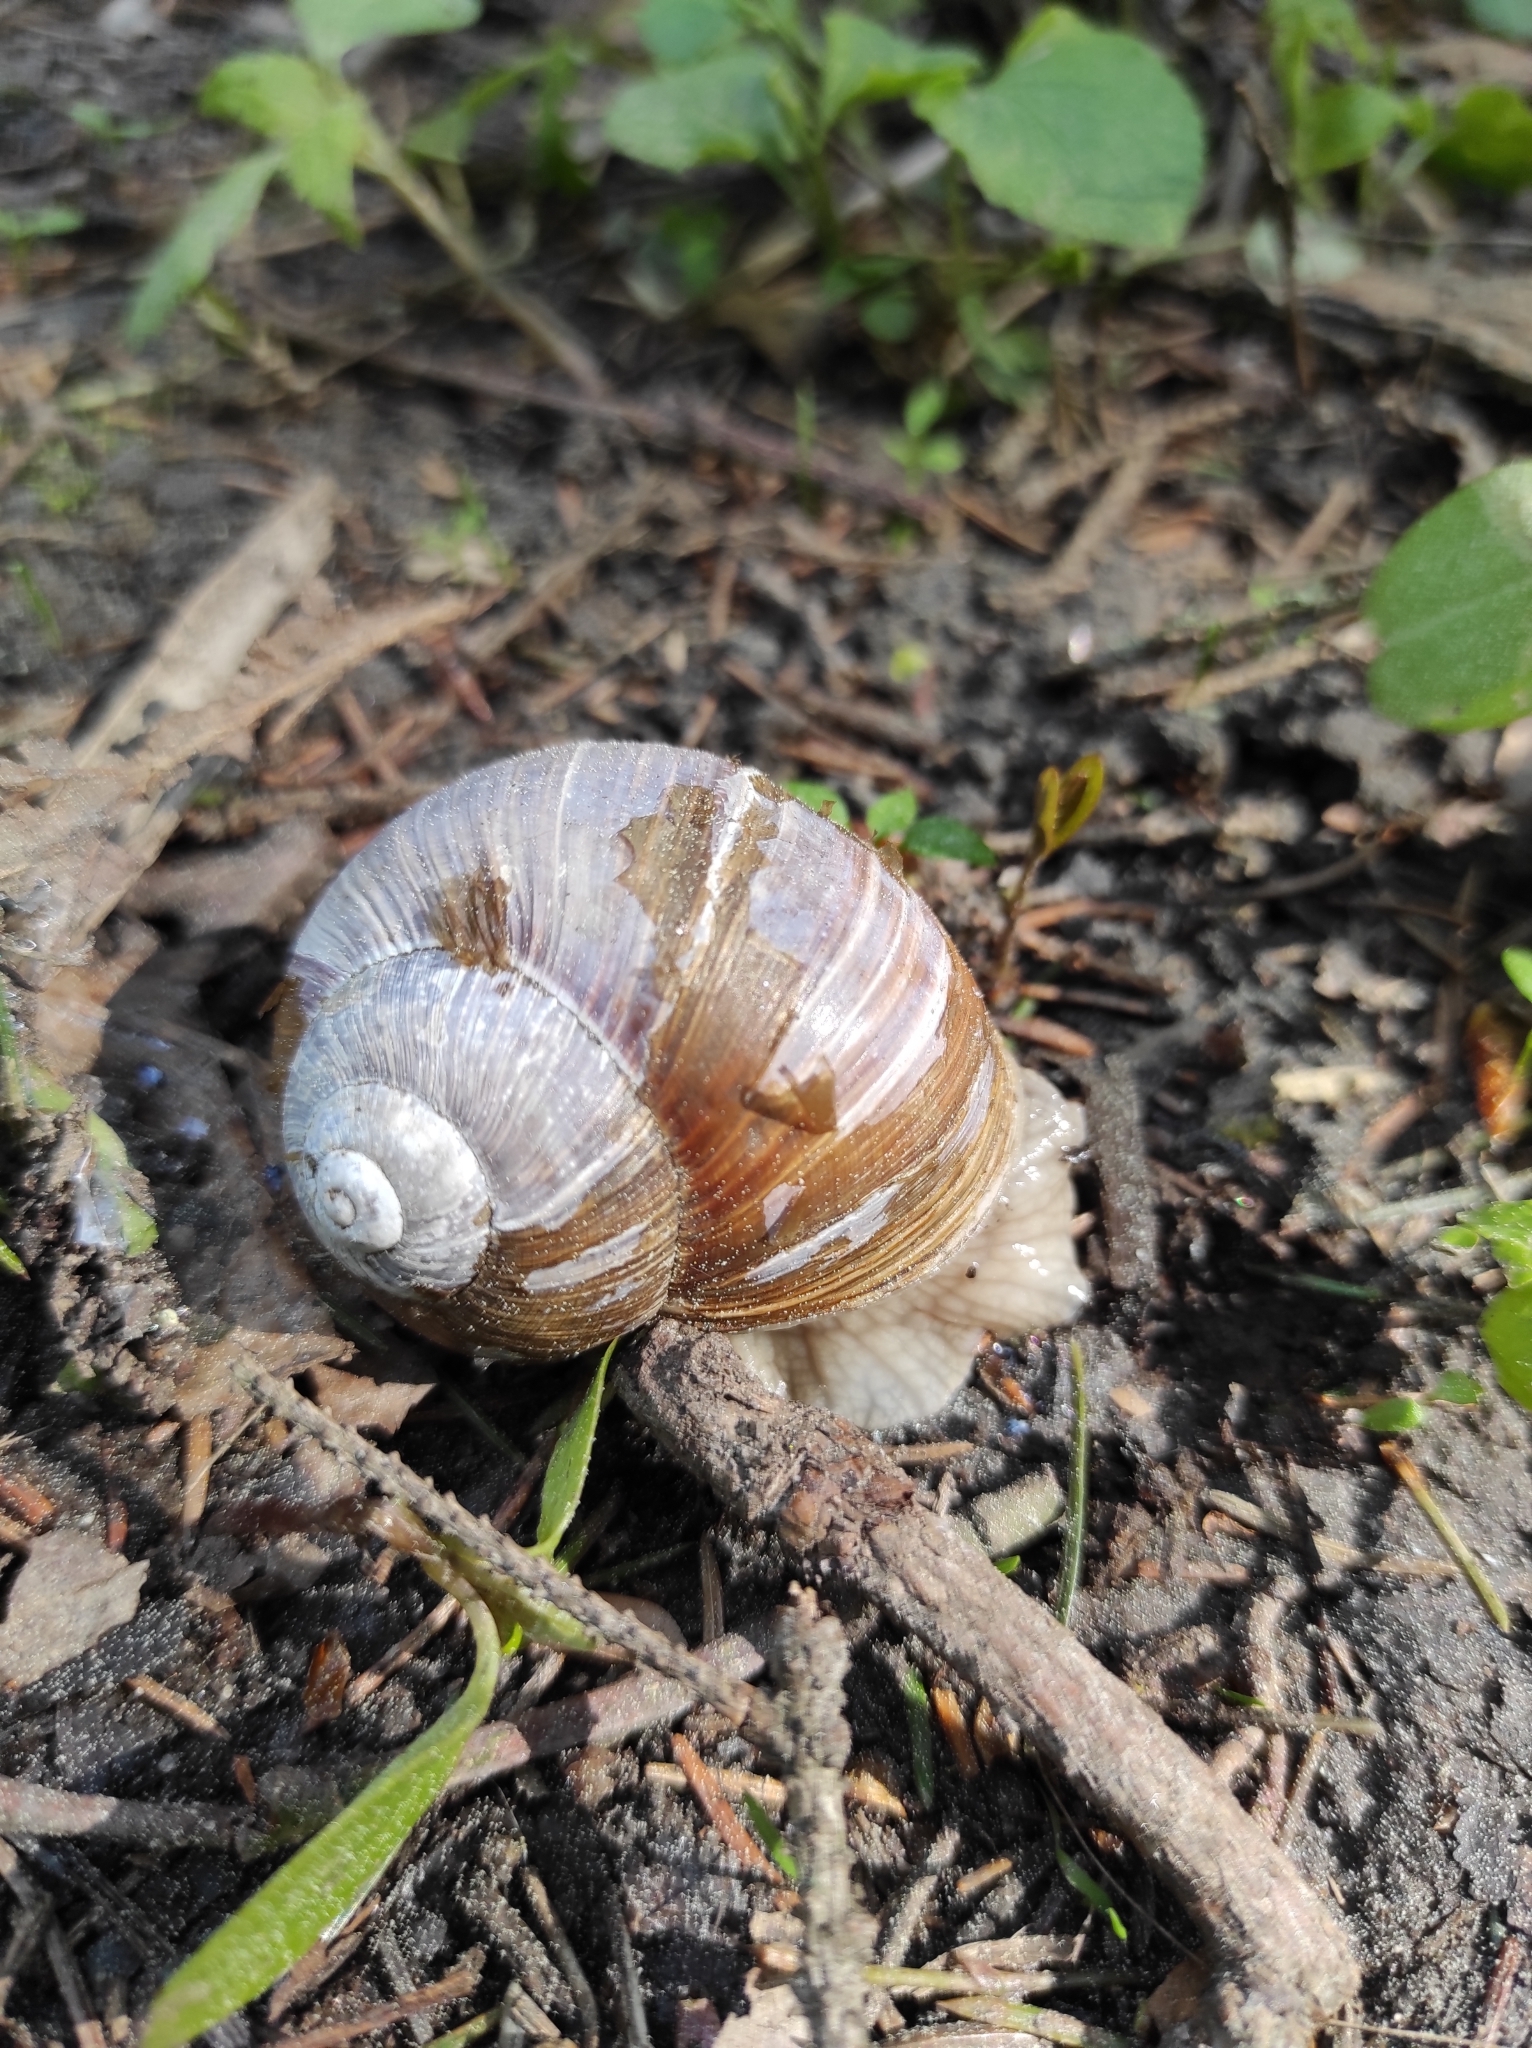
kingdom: Animalia
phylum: Mollusca
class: Gastropoda
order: Stylommatophora
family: Helicidae
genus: Helix
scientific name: Helix pomatia
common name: Roman snail
